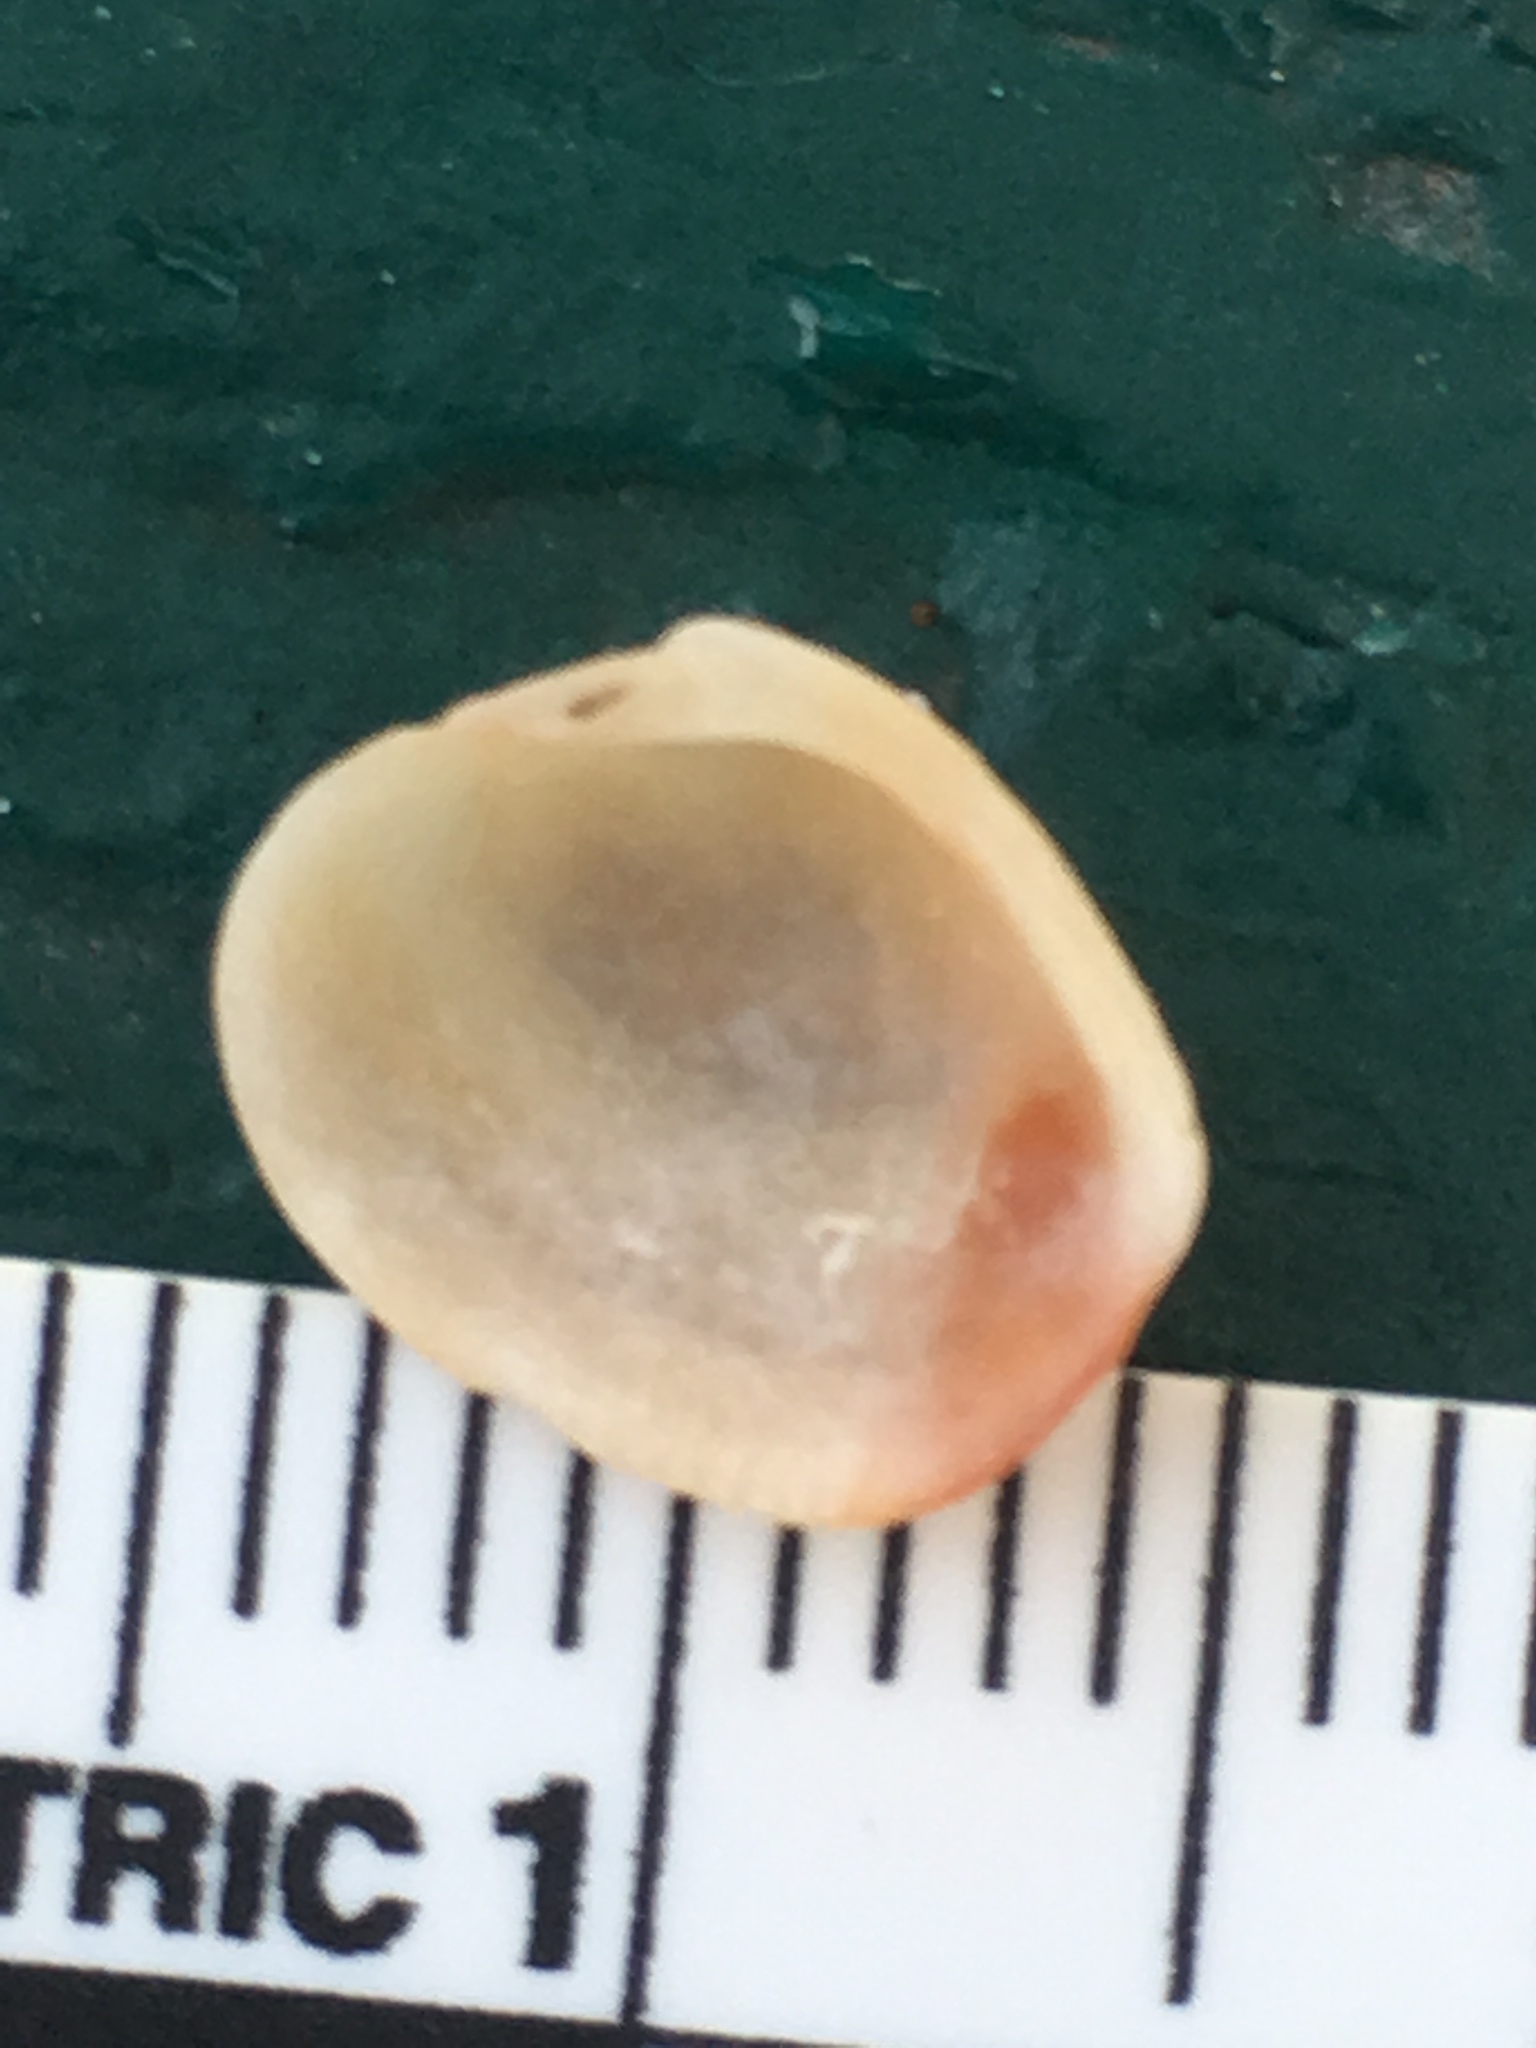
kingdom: Animalia
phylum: Mollusca
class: Bivalvia
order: Venerida
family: Veneridae
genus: Chioneryx
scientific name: Chioneryx grus
